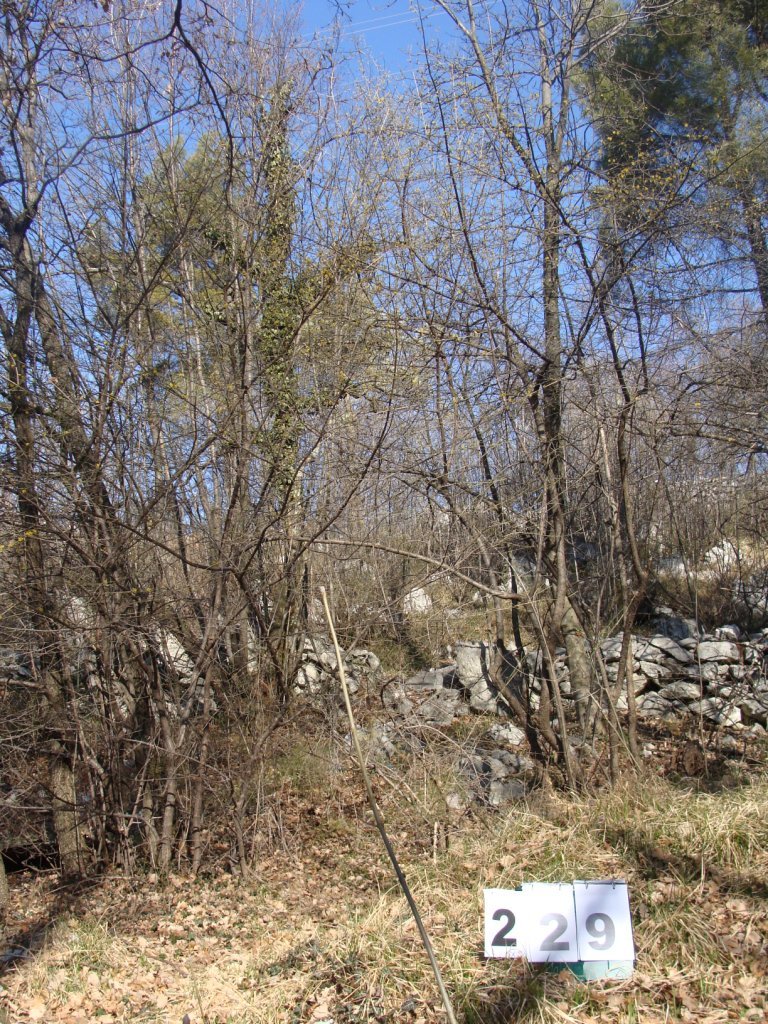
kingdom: Plantae
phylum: Tracheophyta
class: Magnoliopsida
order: Cornales
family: Cornaceae
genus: Cornus
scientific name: Cornus mas
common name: Cornelian-cherry
